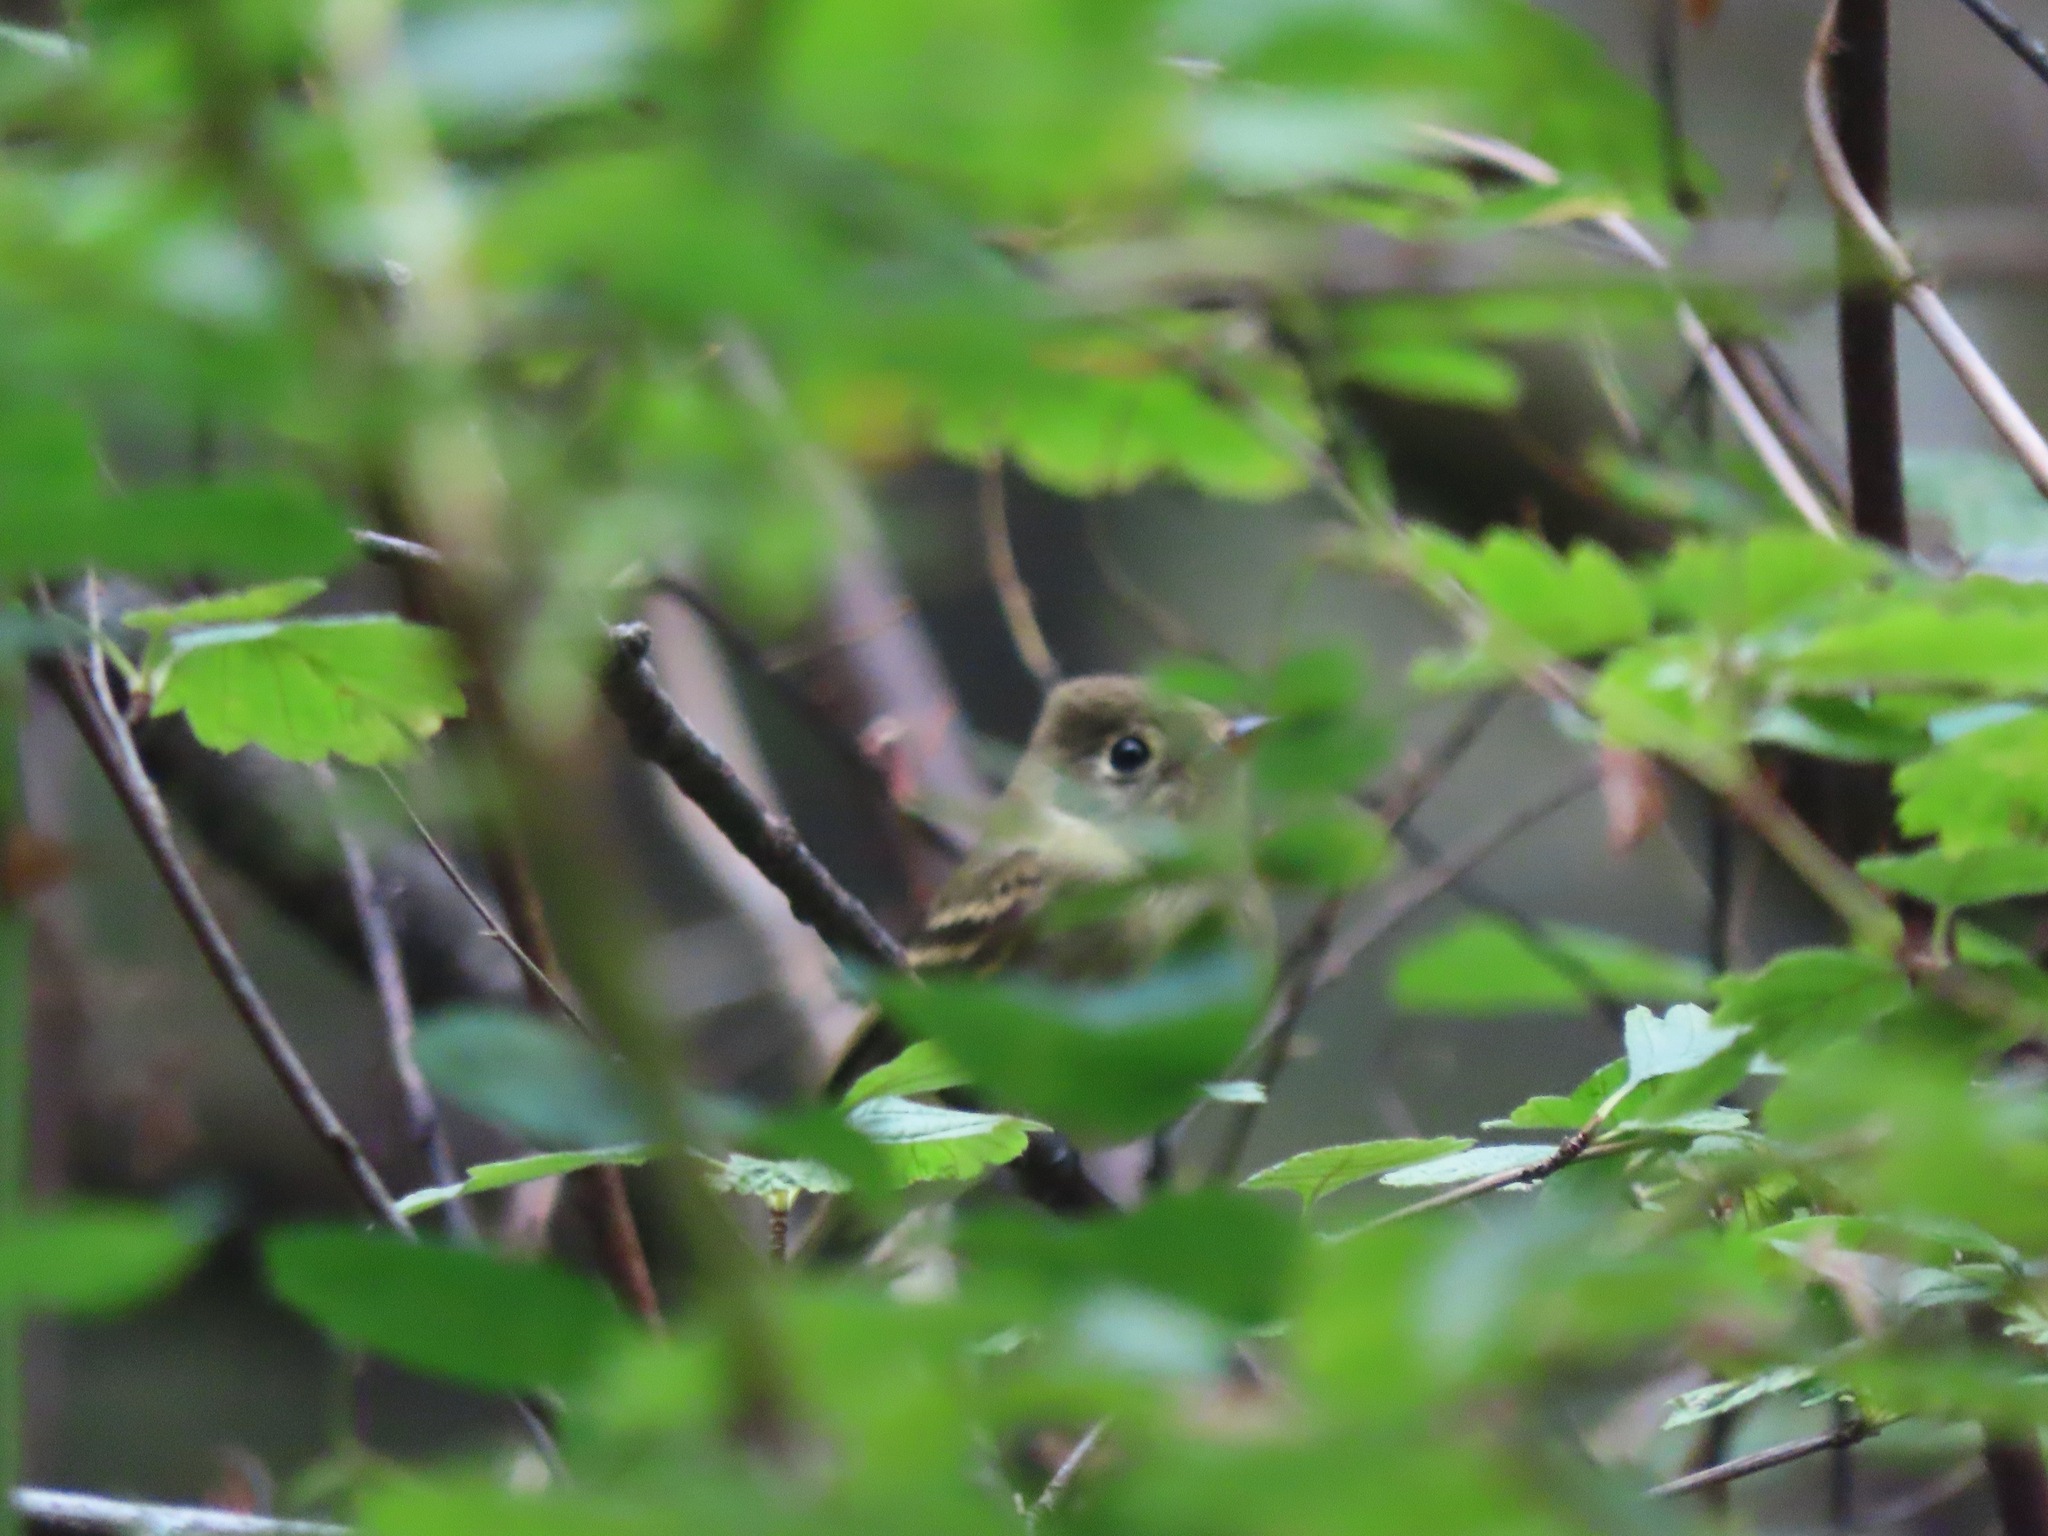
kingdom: Animalia
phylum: Chordata
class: Aves
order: Passeriformes
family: Tyrannidae
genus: Empidonax
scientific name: Empidonax difficilis
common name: Pacific-slope flycatcher
